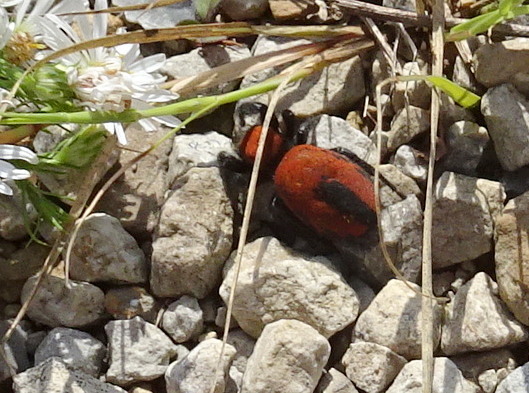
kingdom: Animalia
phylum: Arthropoda
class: Arachnida
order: Araneae
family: Salticidae
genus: Phidippus
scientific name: Phidippus apacheanus
